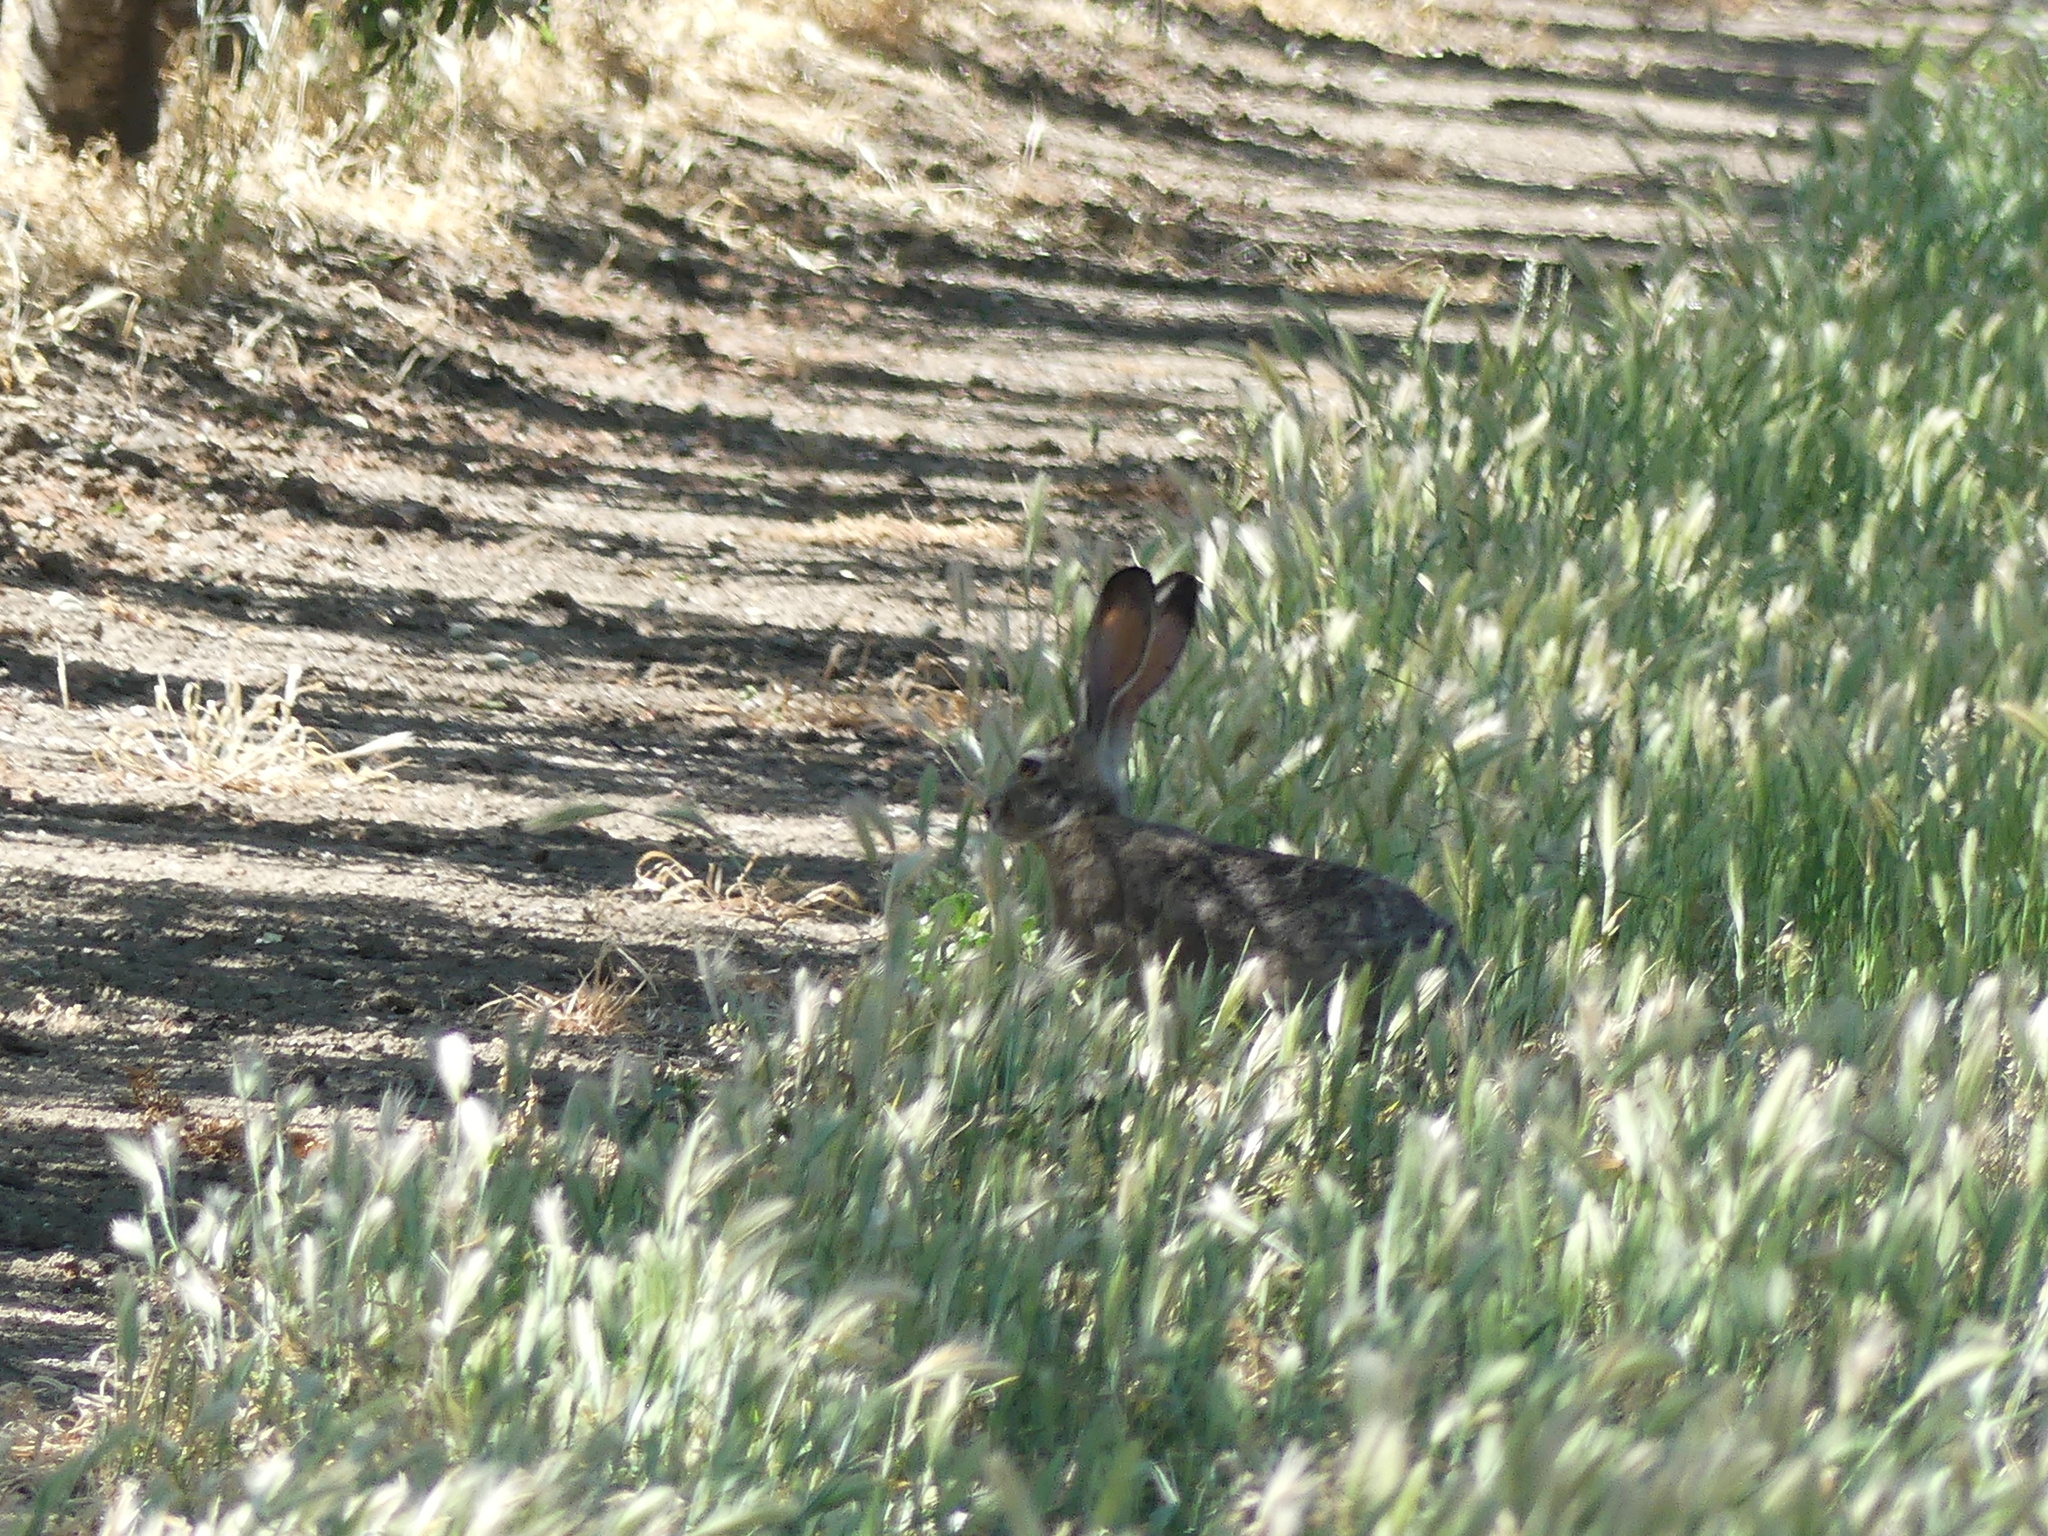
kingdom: Animalia
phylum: Chordata
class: Mammalia
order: Lagomorpha
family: Leporidae
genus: Lepus
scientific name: Lepus californicus
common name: Black-tailed jackrabbit
